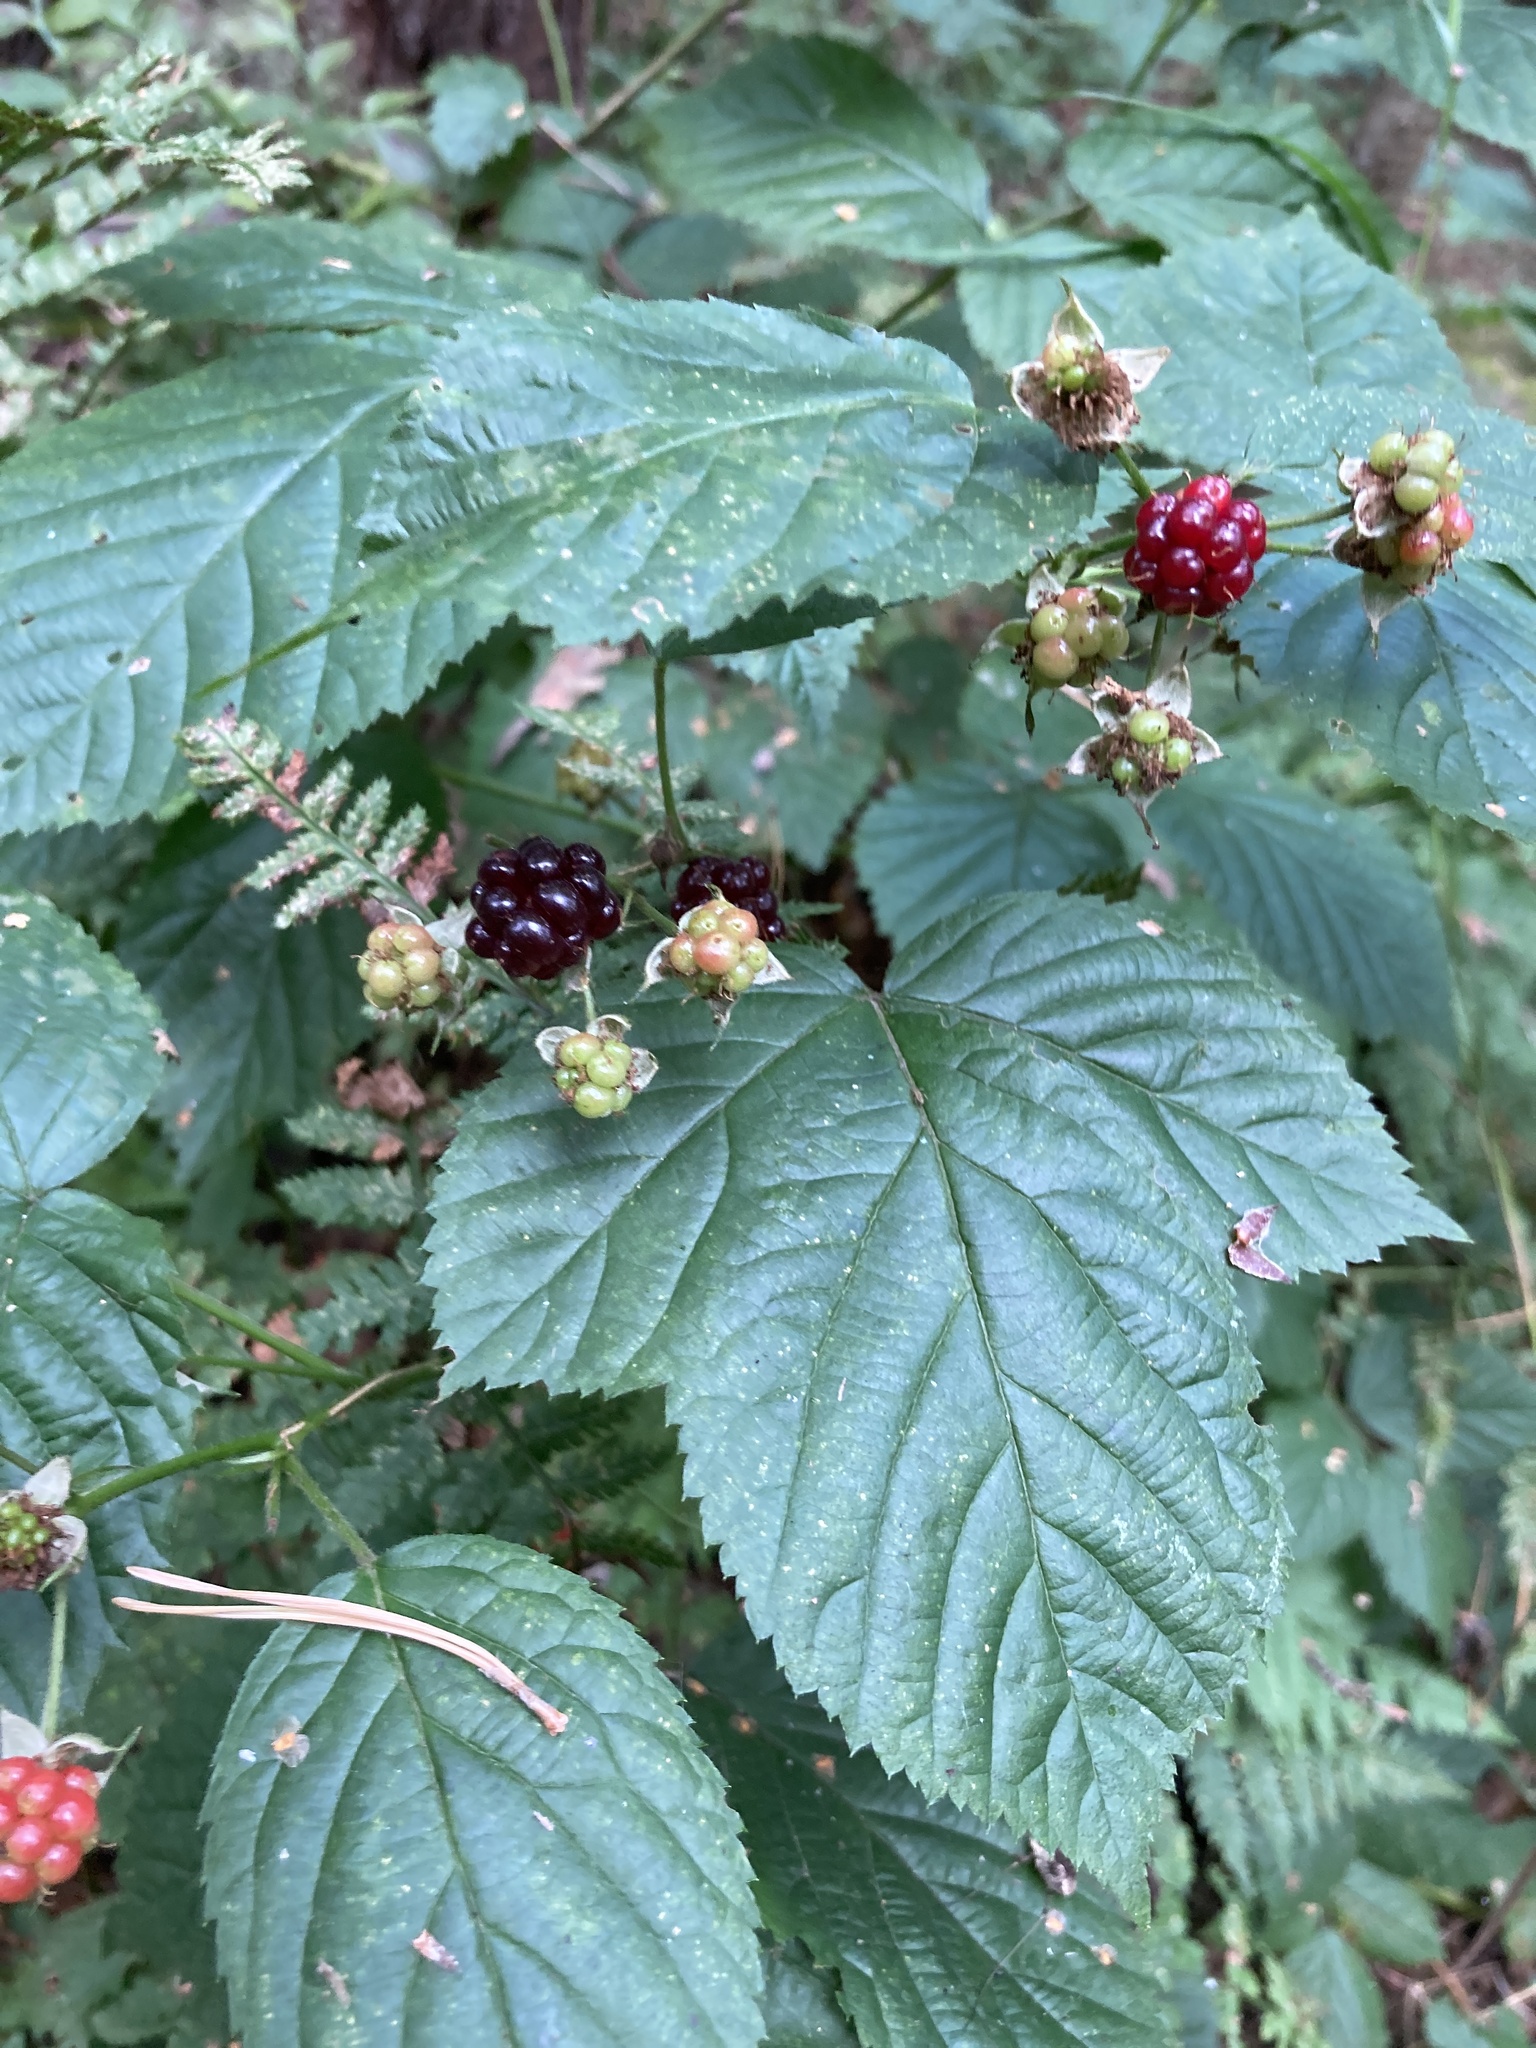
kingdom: Plantae
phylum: Tracheophyta
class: Magnoliopsida
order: Rosales
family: Rosaceae
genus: Rubus
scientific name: Rubus polonicus
